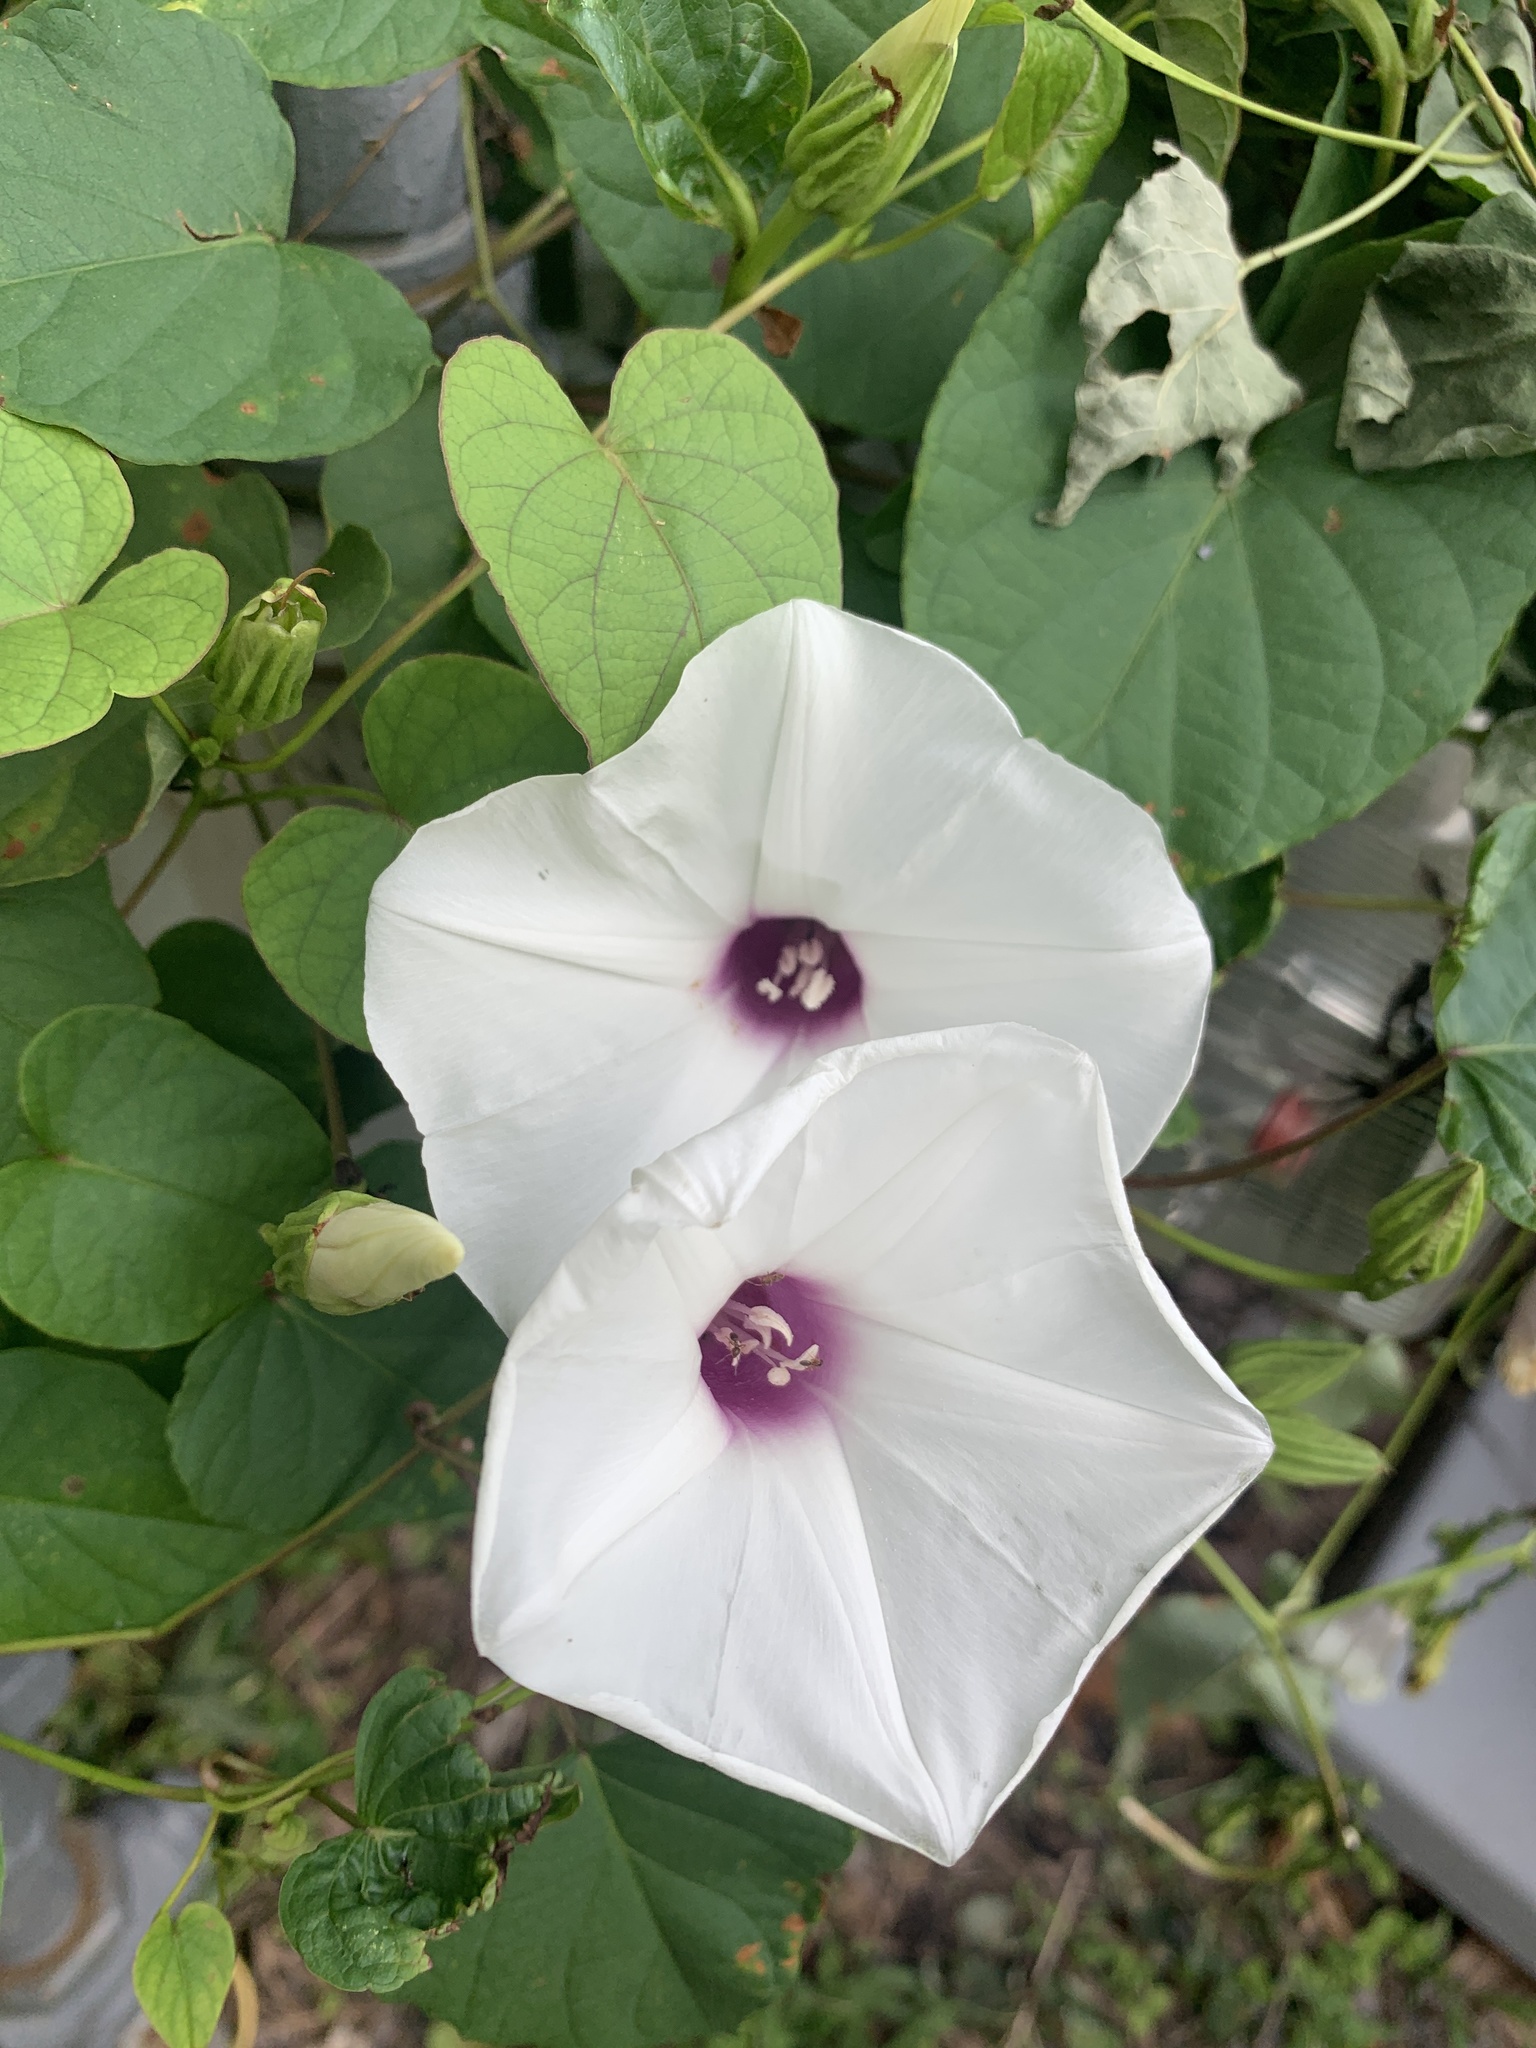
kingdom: Plantae
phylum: Tracheophyta
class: Magnoliopsida
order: Solanales
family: Convolvulaceae
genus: Ipomoea
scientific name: Ipomoea pandurata
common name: Man-of-the-earth
